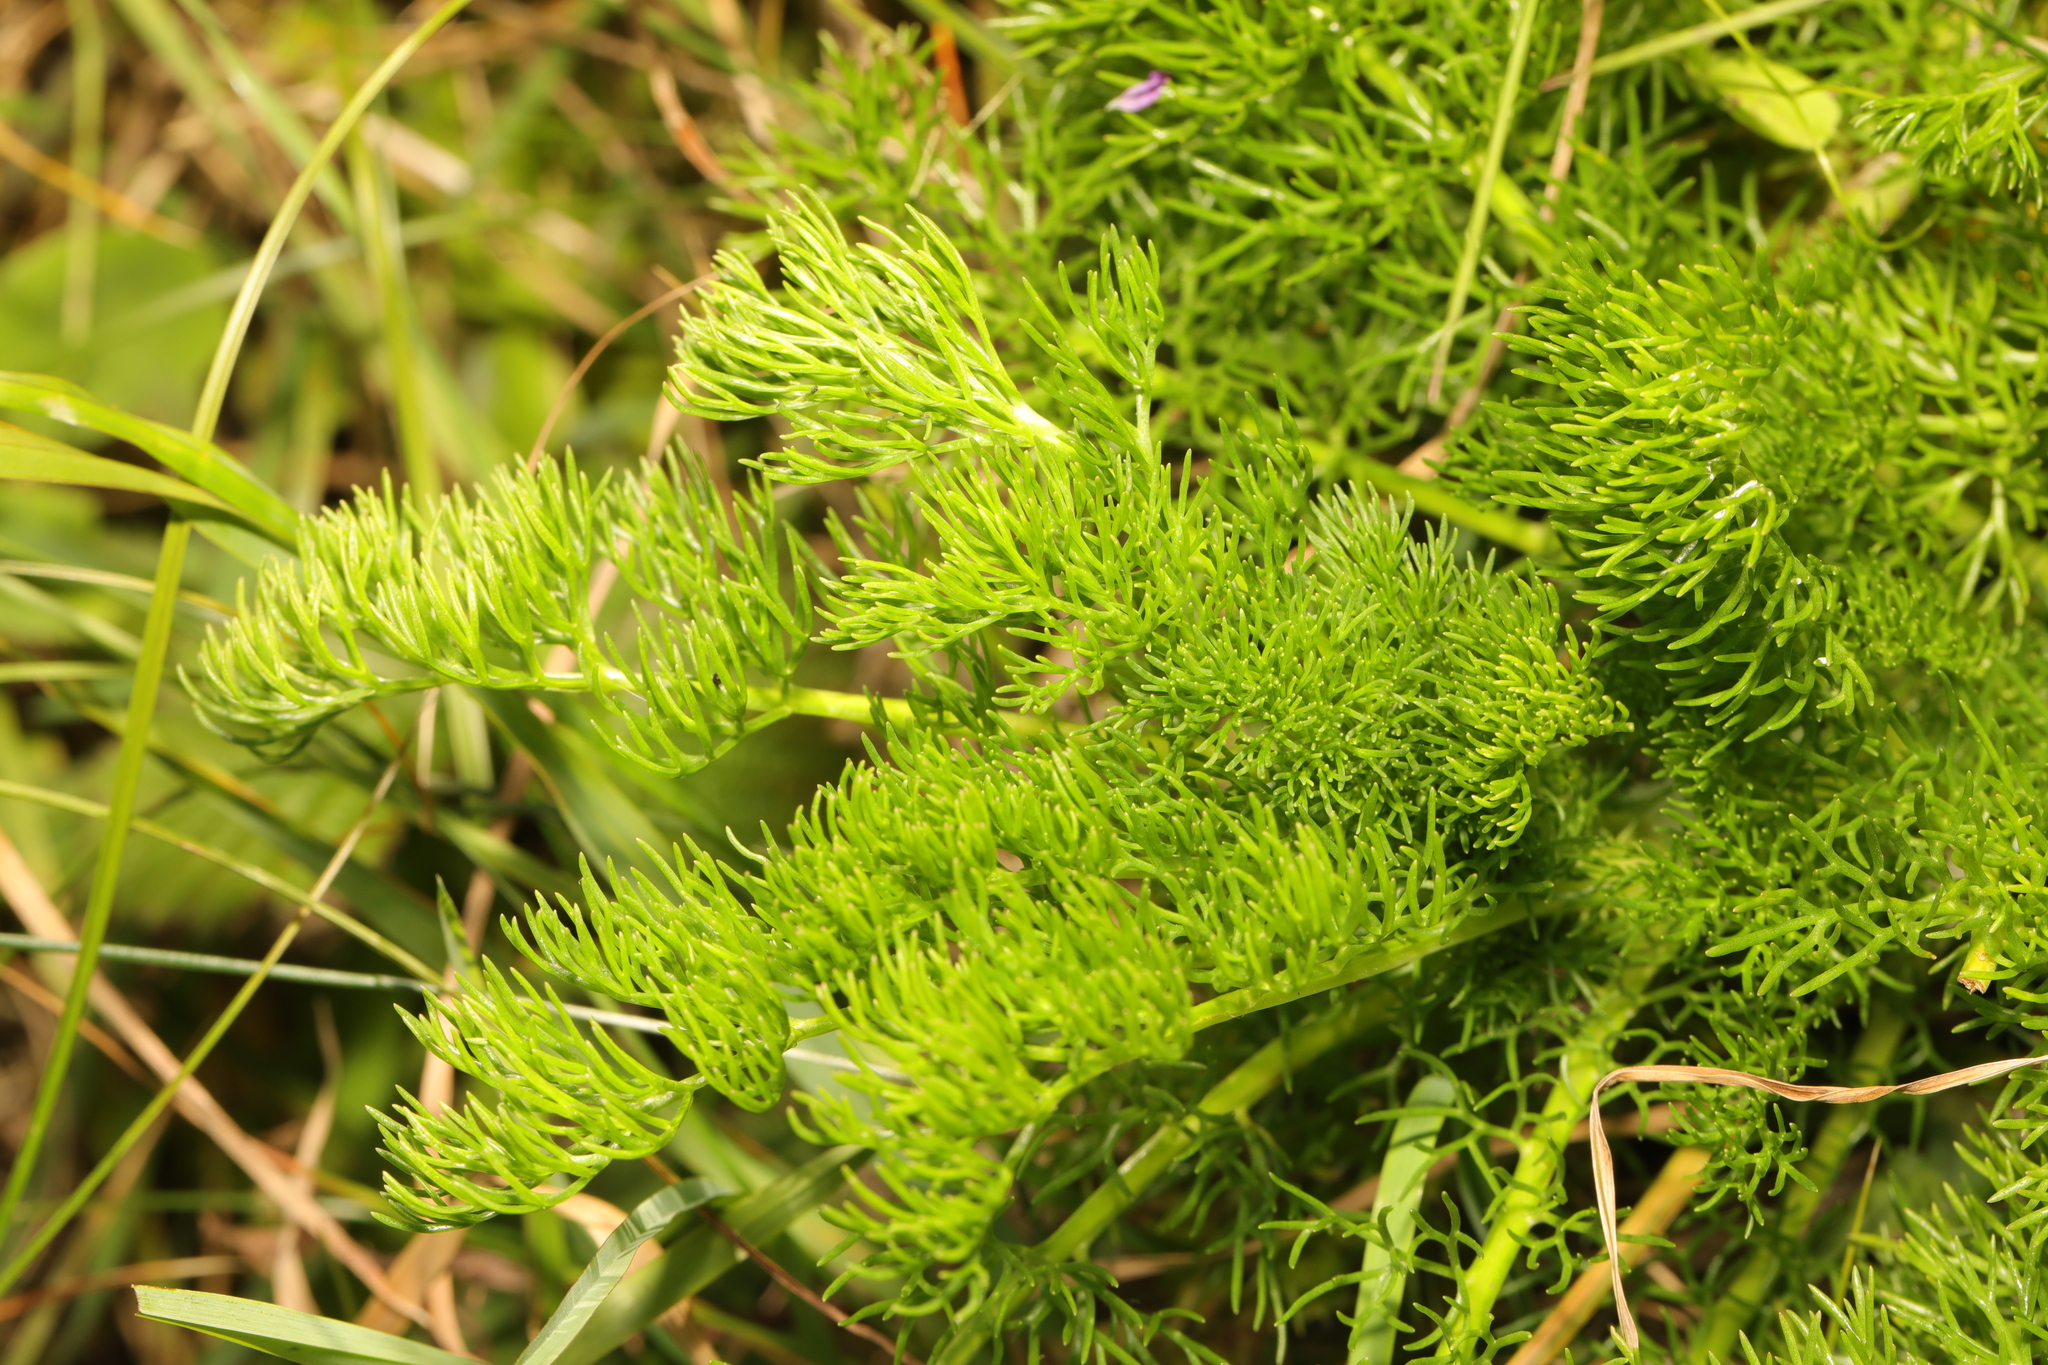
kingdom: Plantae
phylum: Tracheophyta
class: Magnoliopsida
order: Asterales
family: Asteraceae
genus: Tripleurospermum
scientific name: Tripleurospermum maritimum
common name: Sea mayweed
